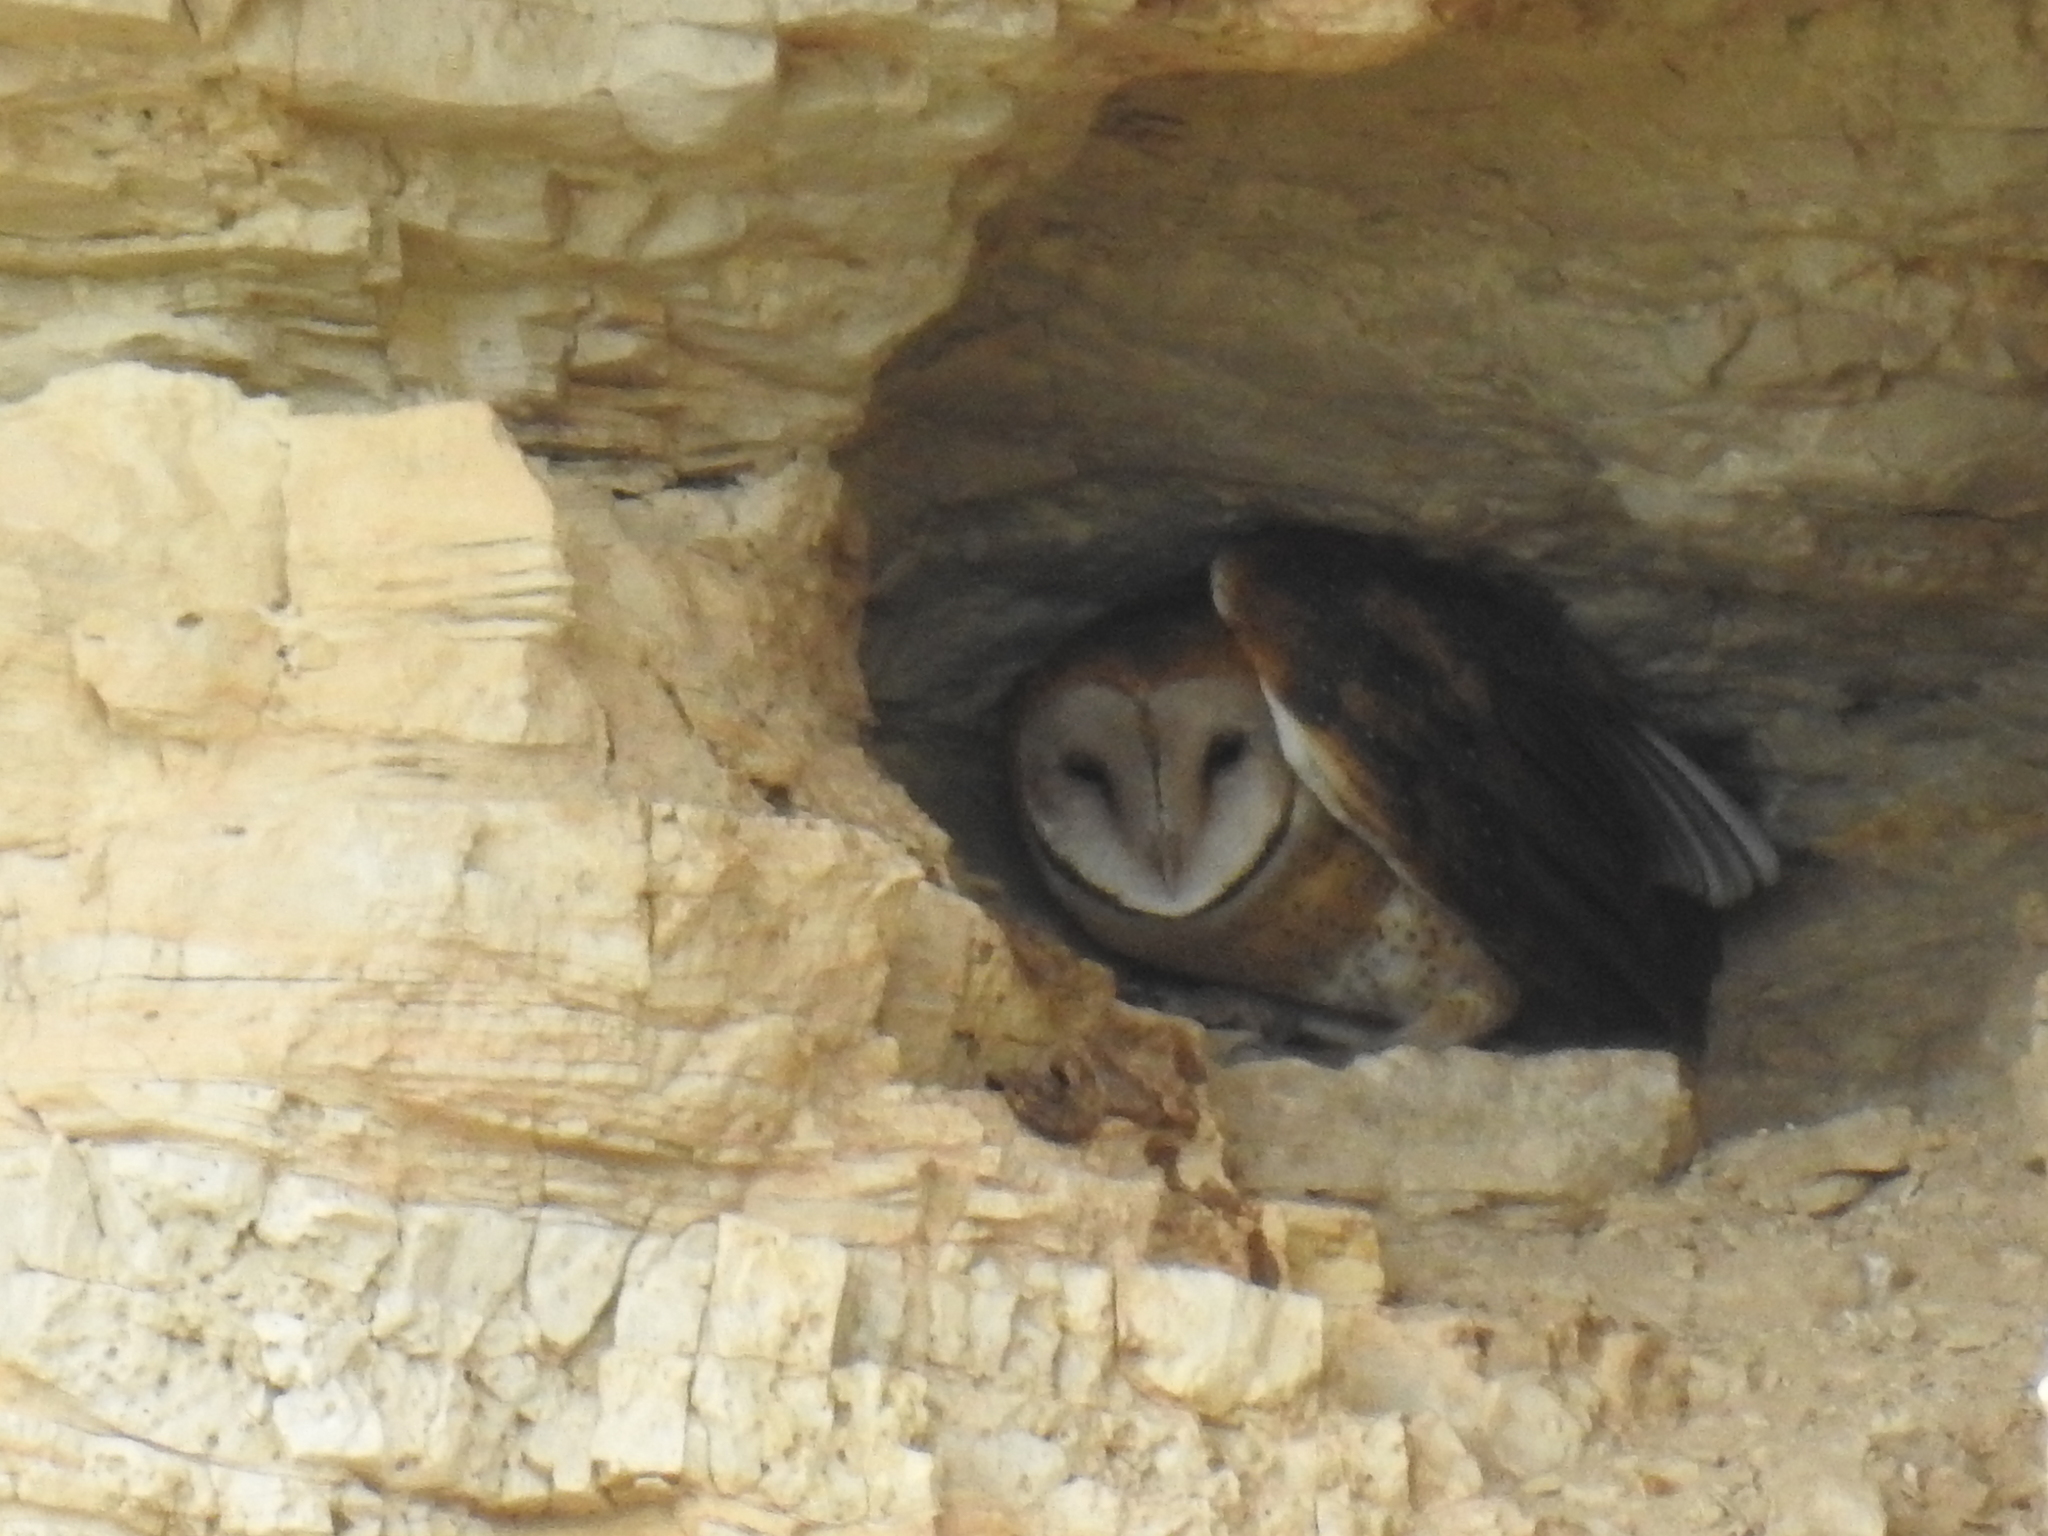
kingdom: Animalia
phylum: Chordata
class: Aves
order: Strigiformes
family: Tytonidae
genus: Tyto
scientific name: Tyto alba
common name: Barn owl
